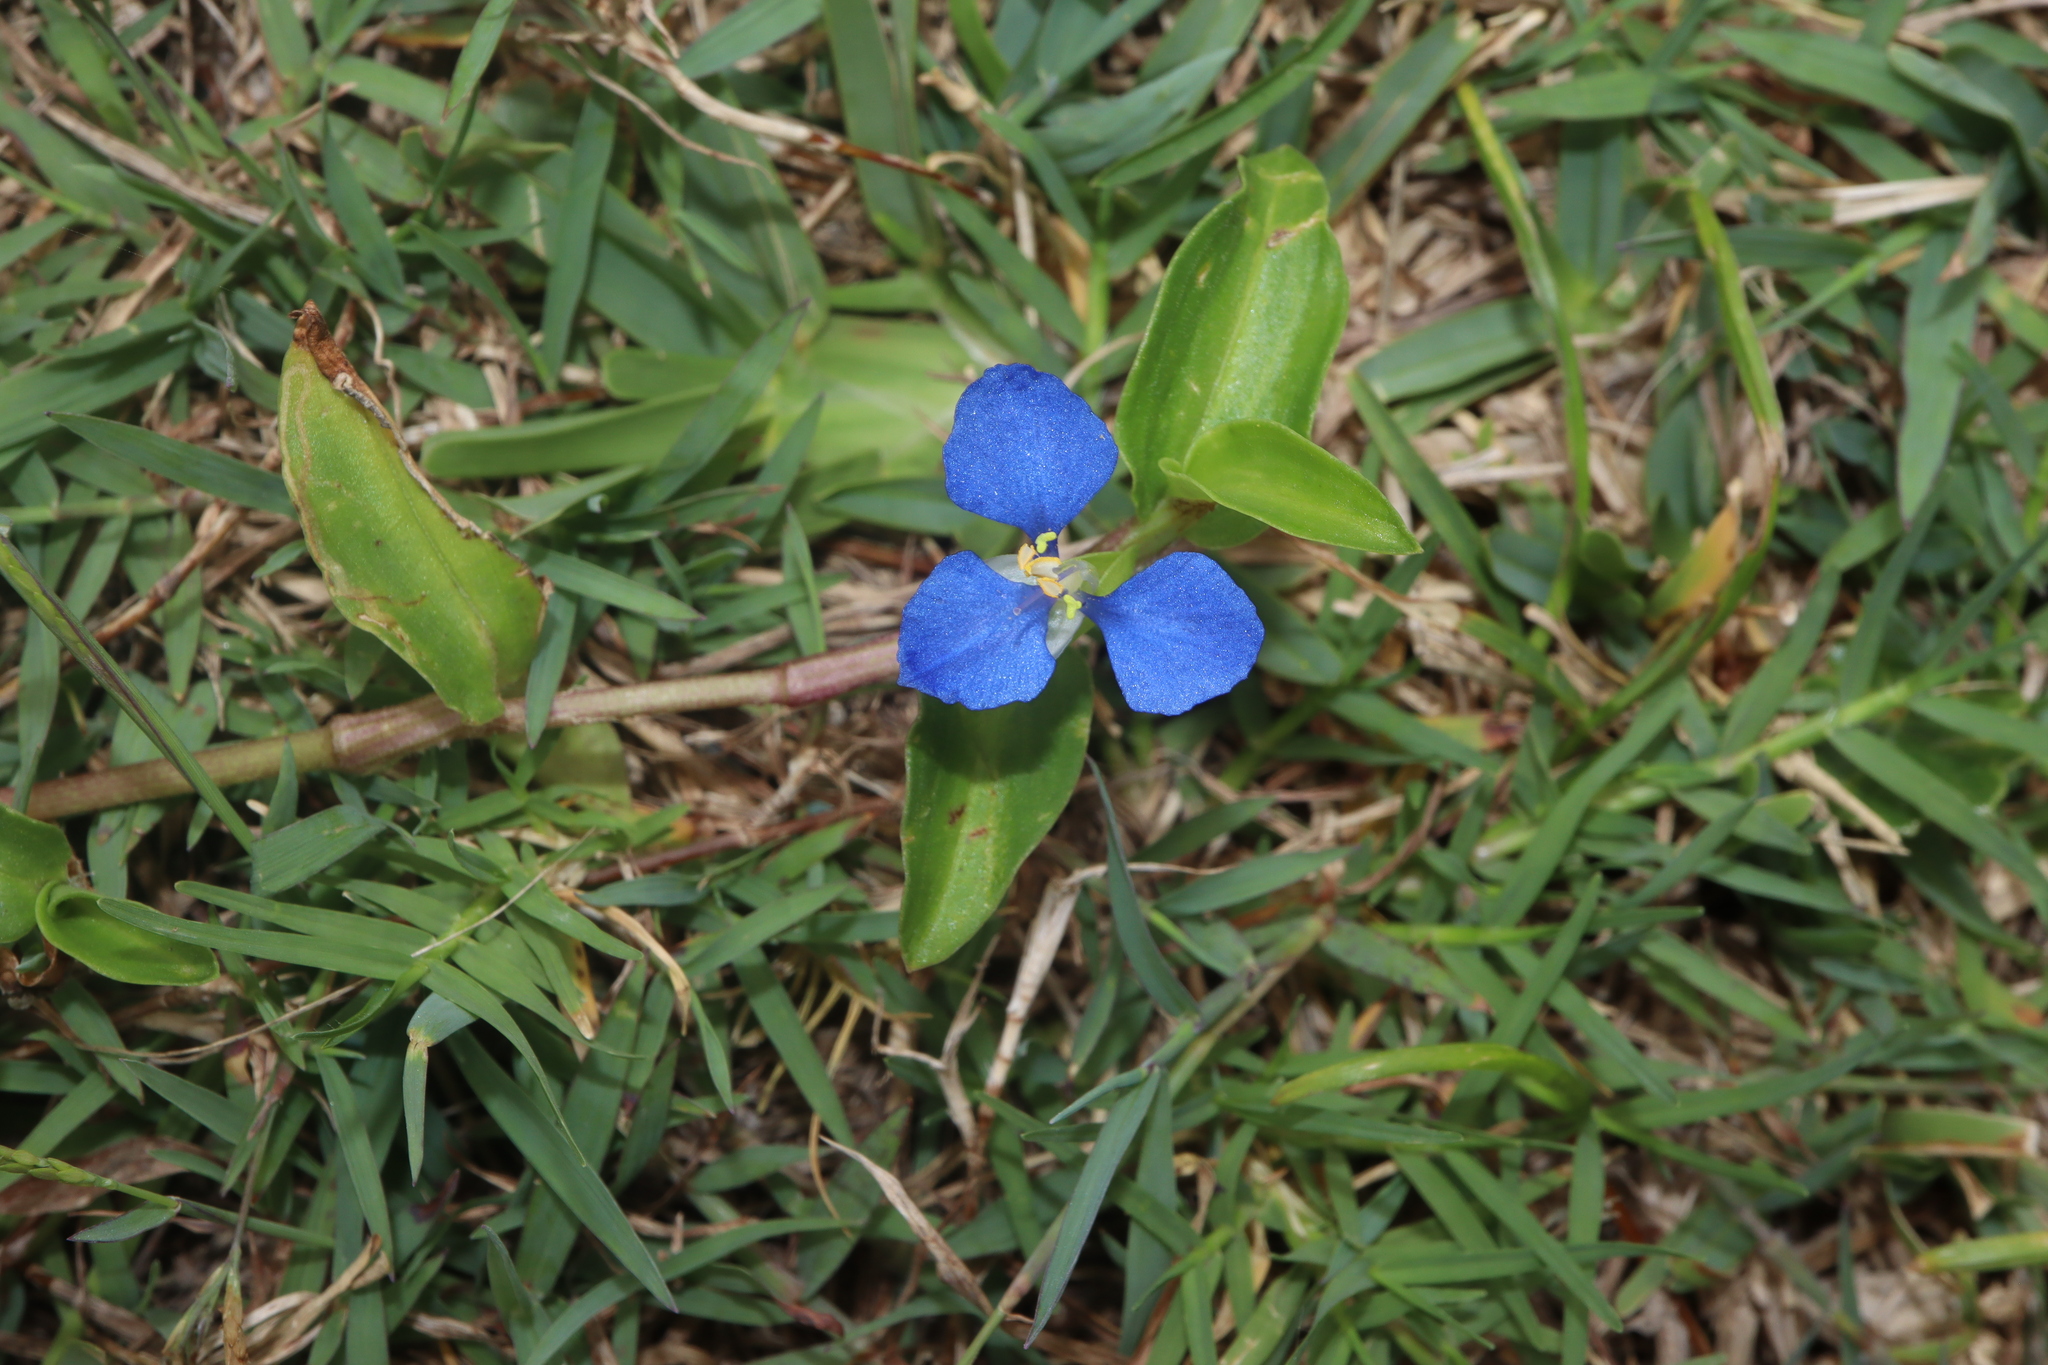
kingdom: Plantae
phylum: Tracheophyta
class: Liliopsida
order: Commelinales
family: Commelinaceae
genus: Commelina
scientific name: Commelina cyanea
